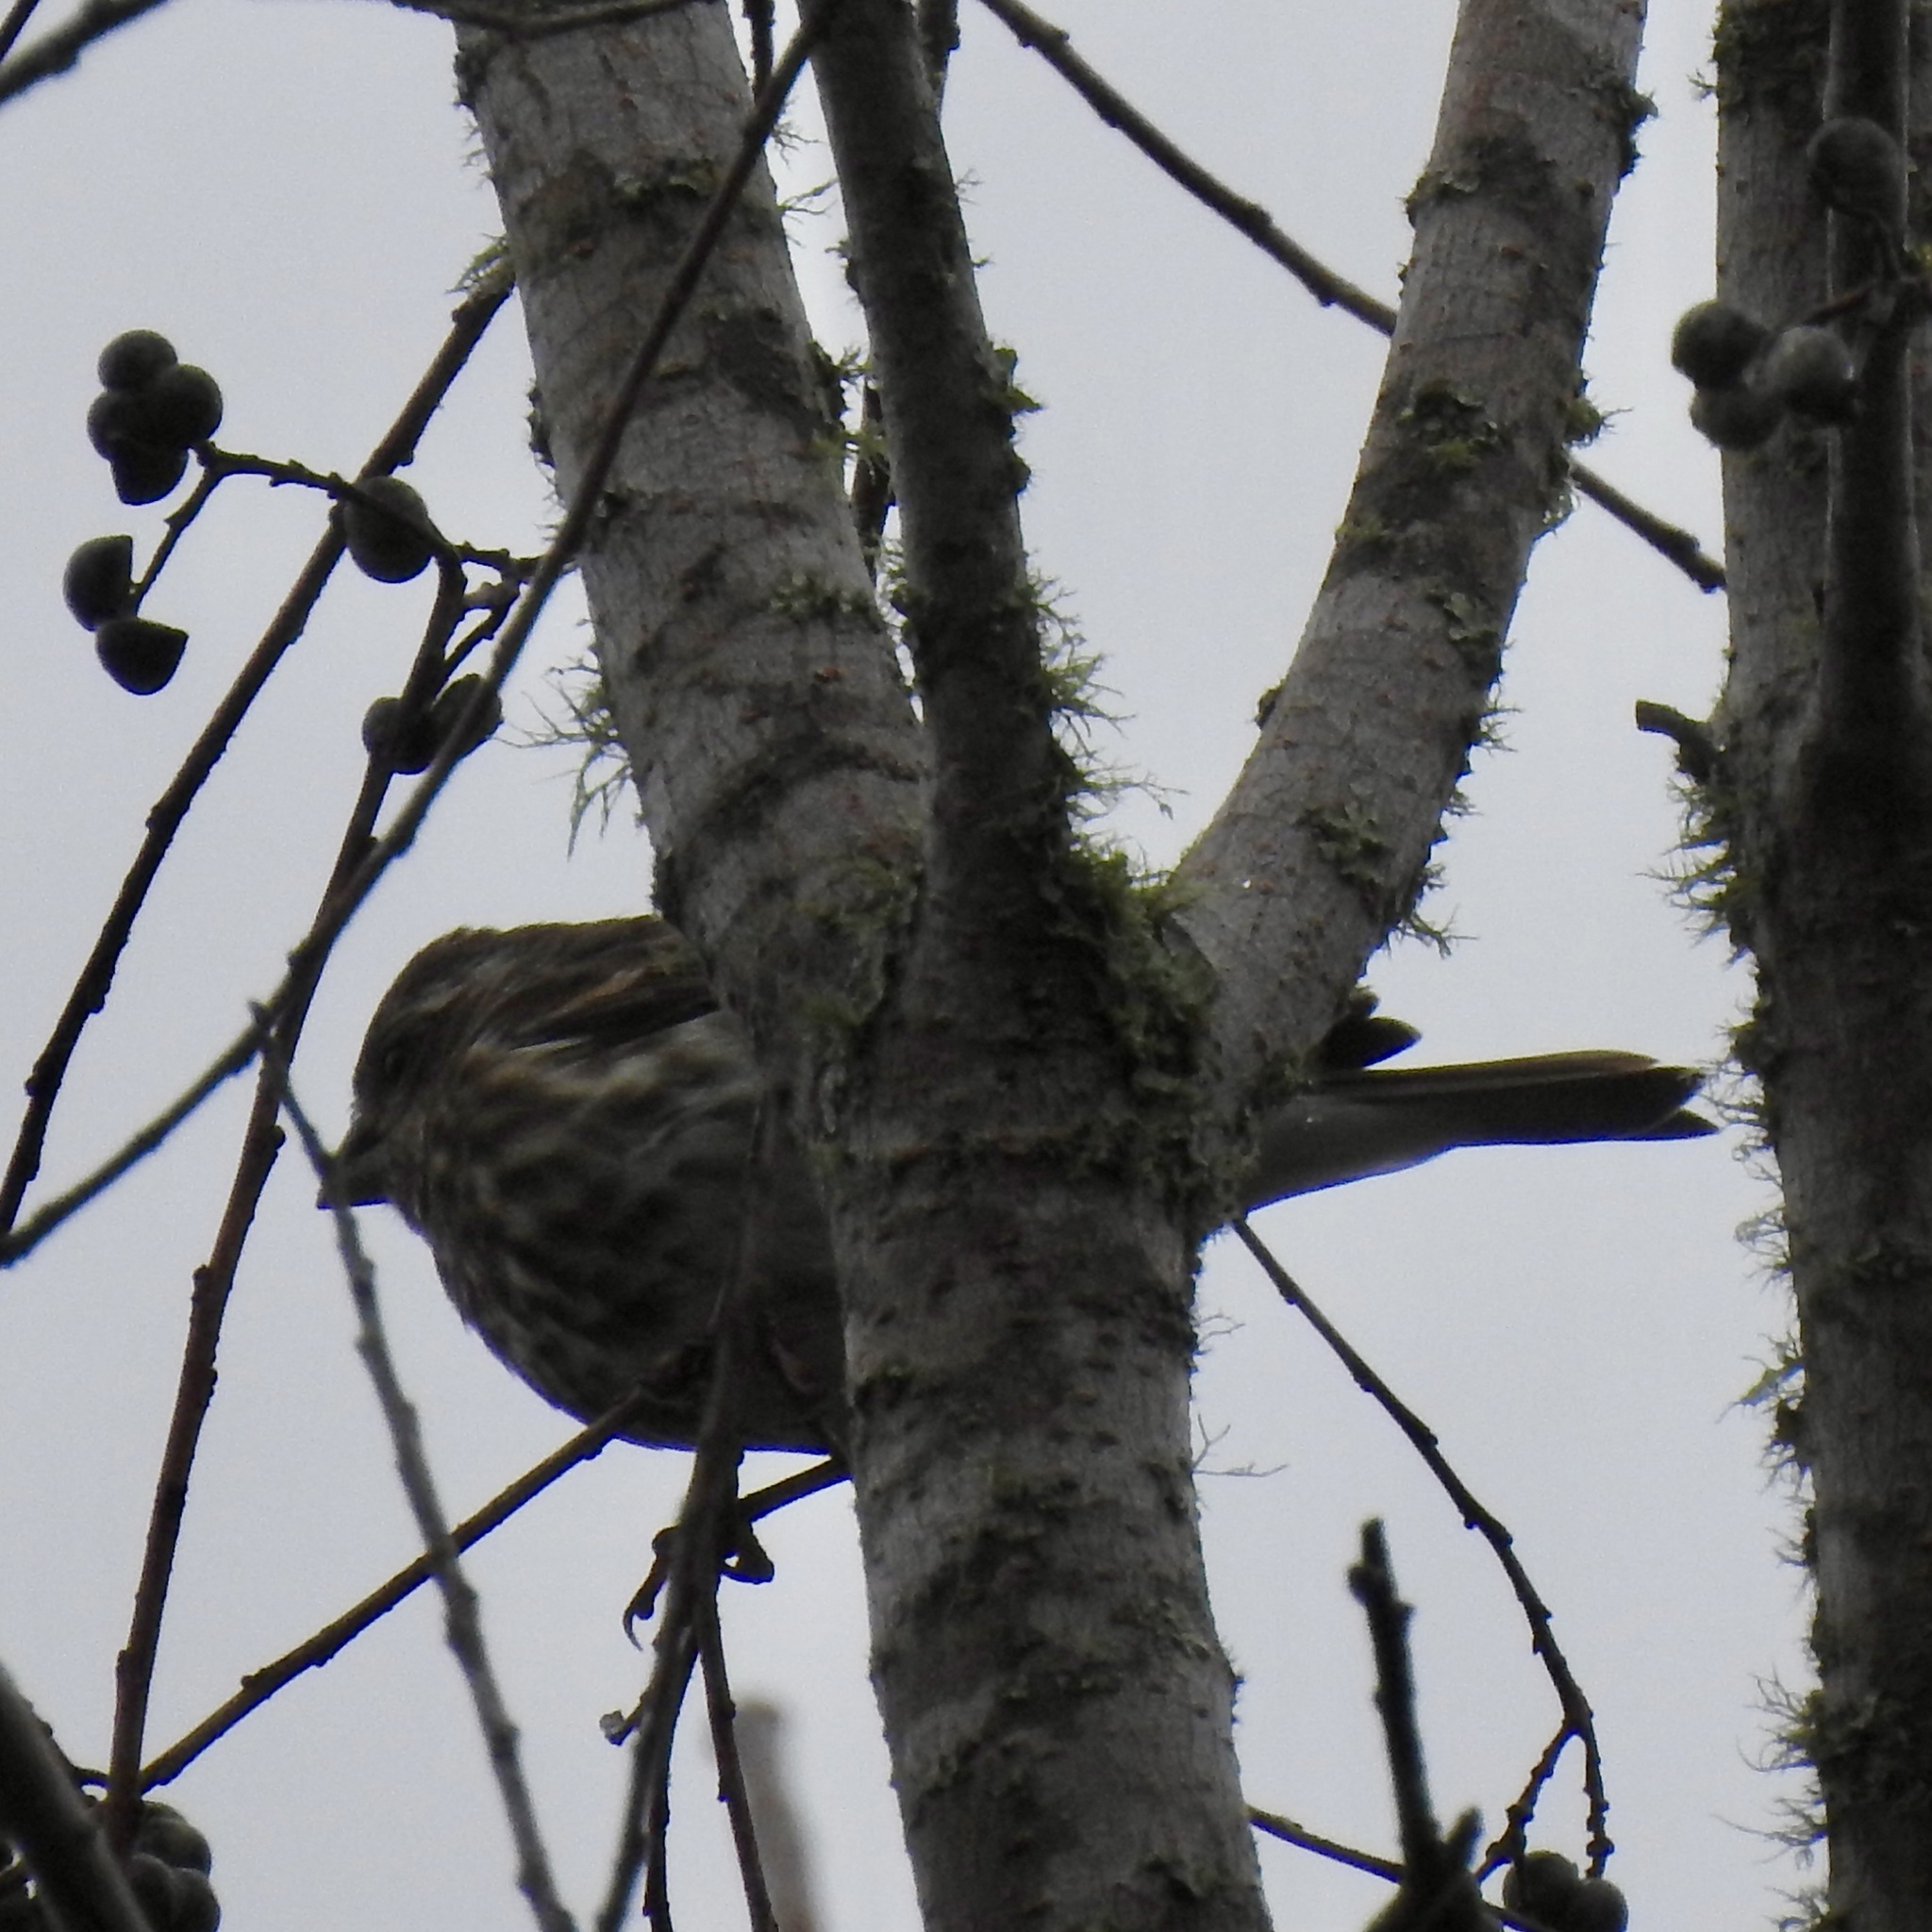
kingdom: Animalia
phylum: Chordata
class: Aves
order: Passeriformes
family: Fringillidae
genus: Haemorhous
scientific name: Haemorhous purpureus
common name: Purple finch
